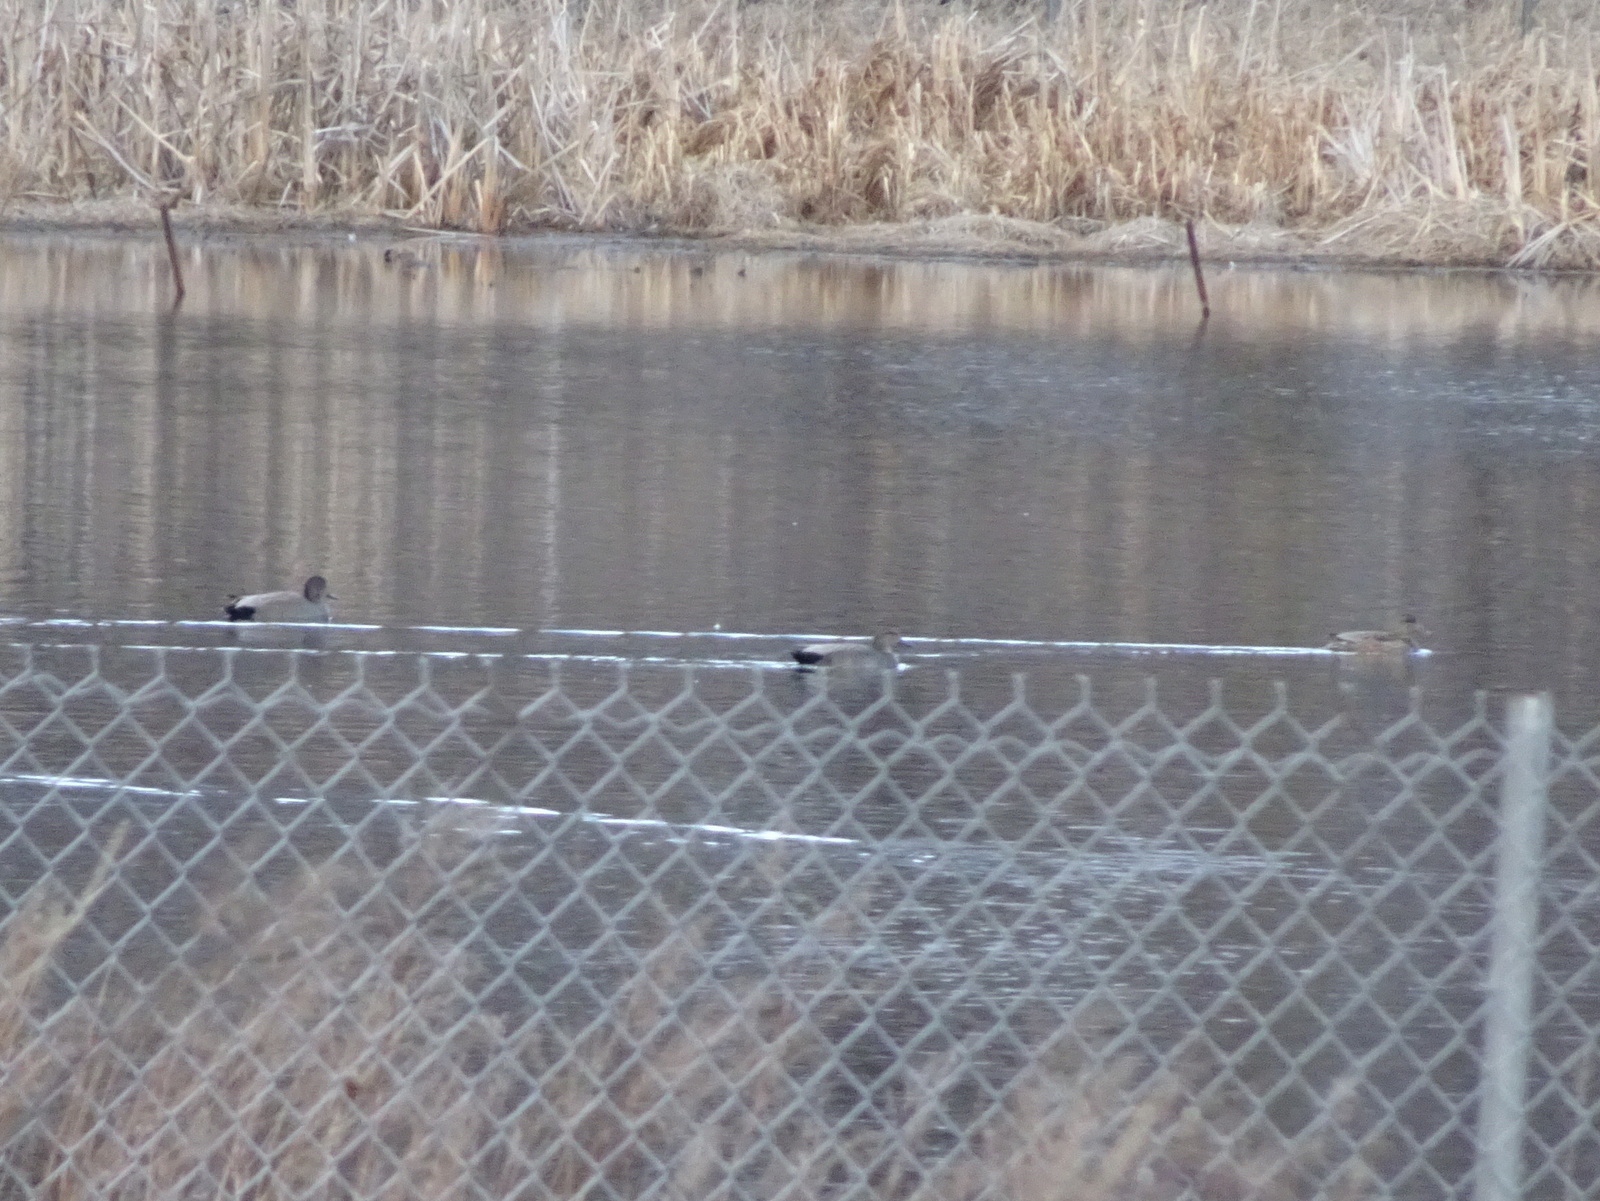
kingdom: Animalia
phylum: Chordata
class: Aves
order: Anseriformes
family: Anatidae
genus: Mareca
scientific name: Mareca strepera
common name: Gadwall
